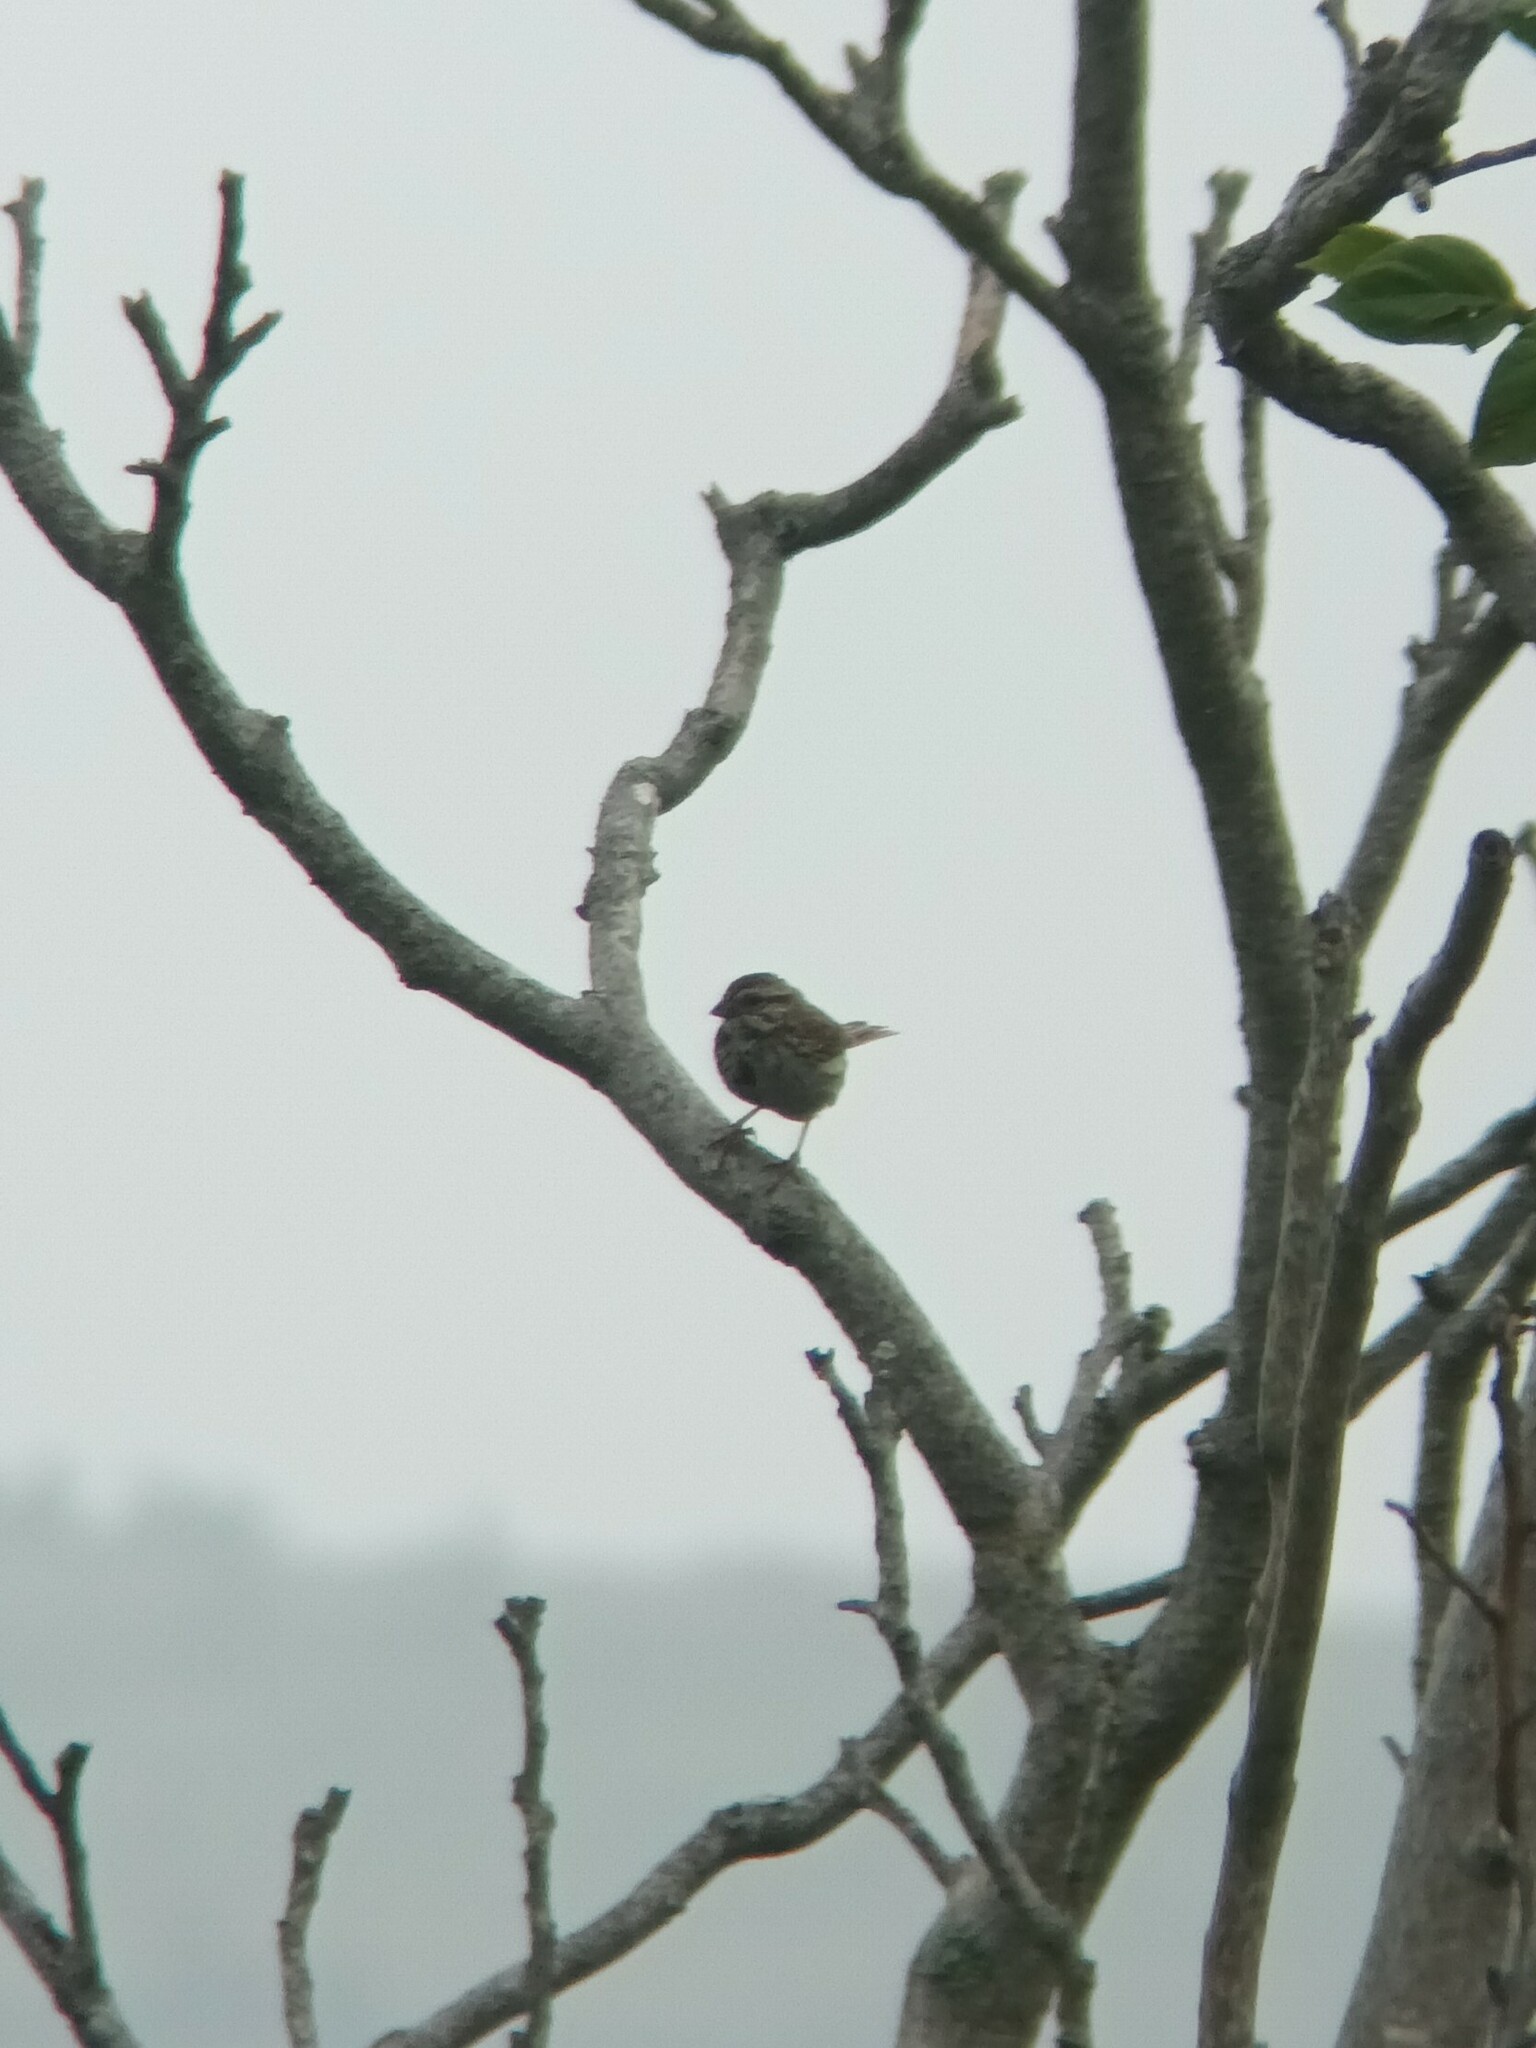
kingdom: Animalia
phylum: Chordata
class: Aves
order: Passeriformes
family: Passerellidae
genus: Melospiza
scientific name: Melospiza melodia
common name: Song sparrow
